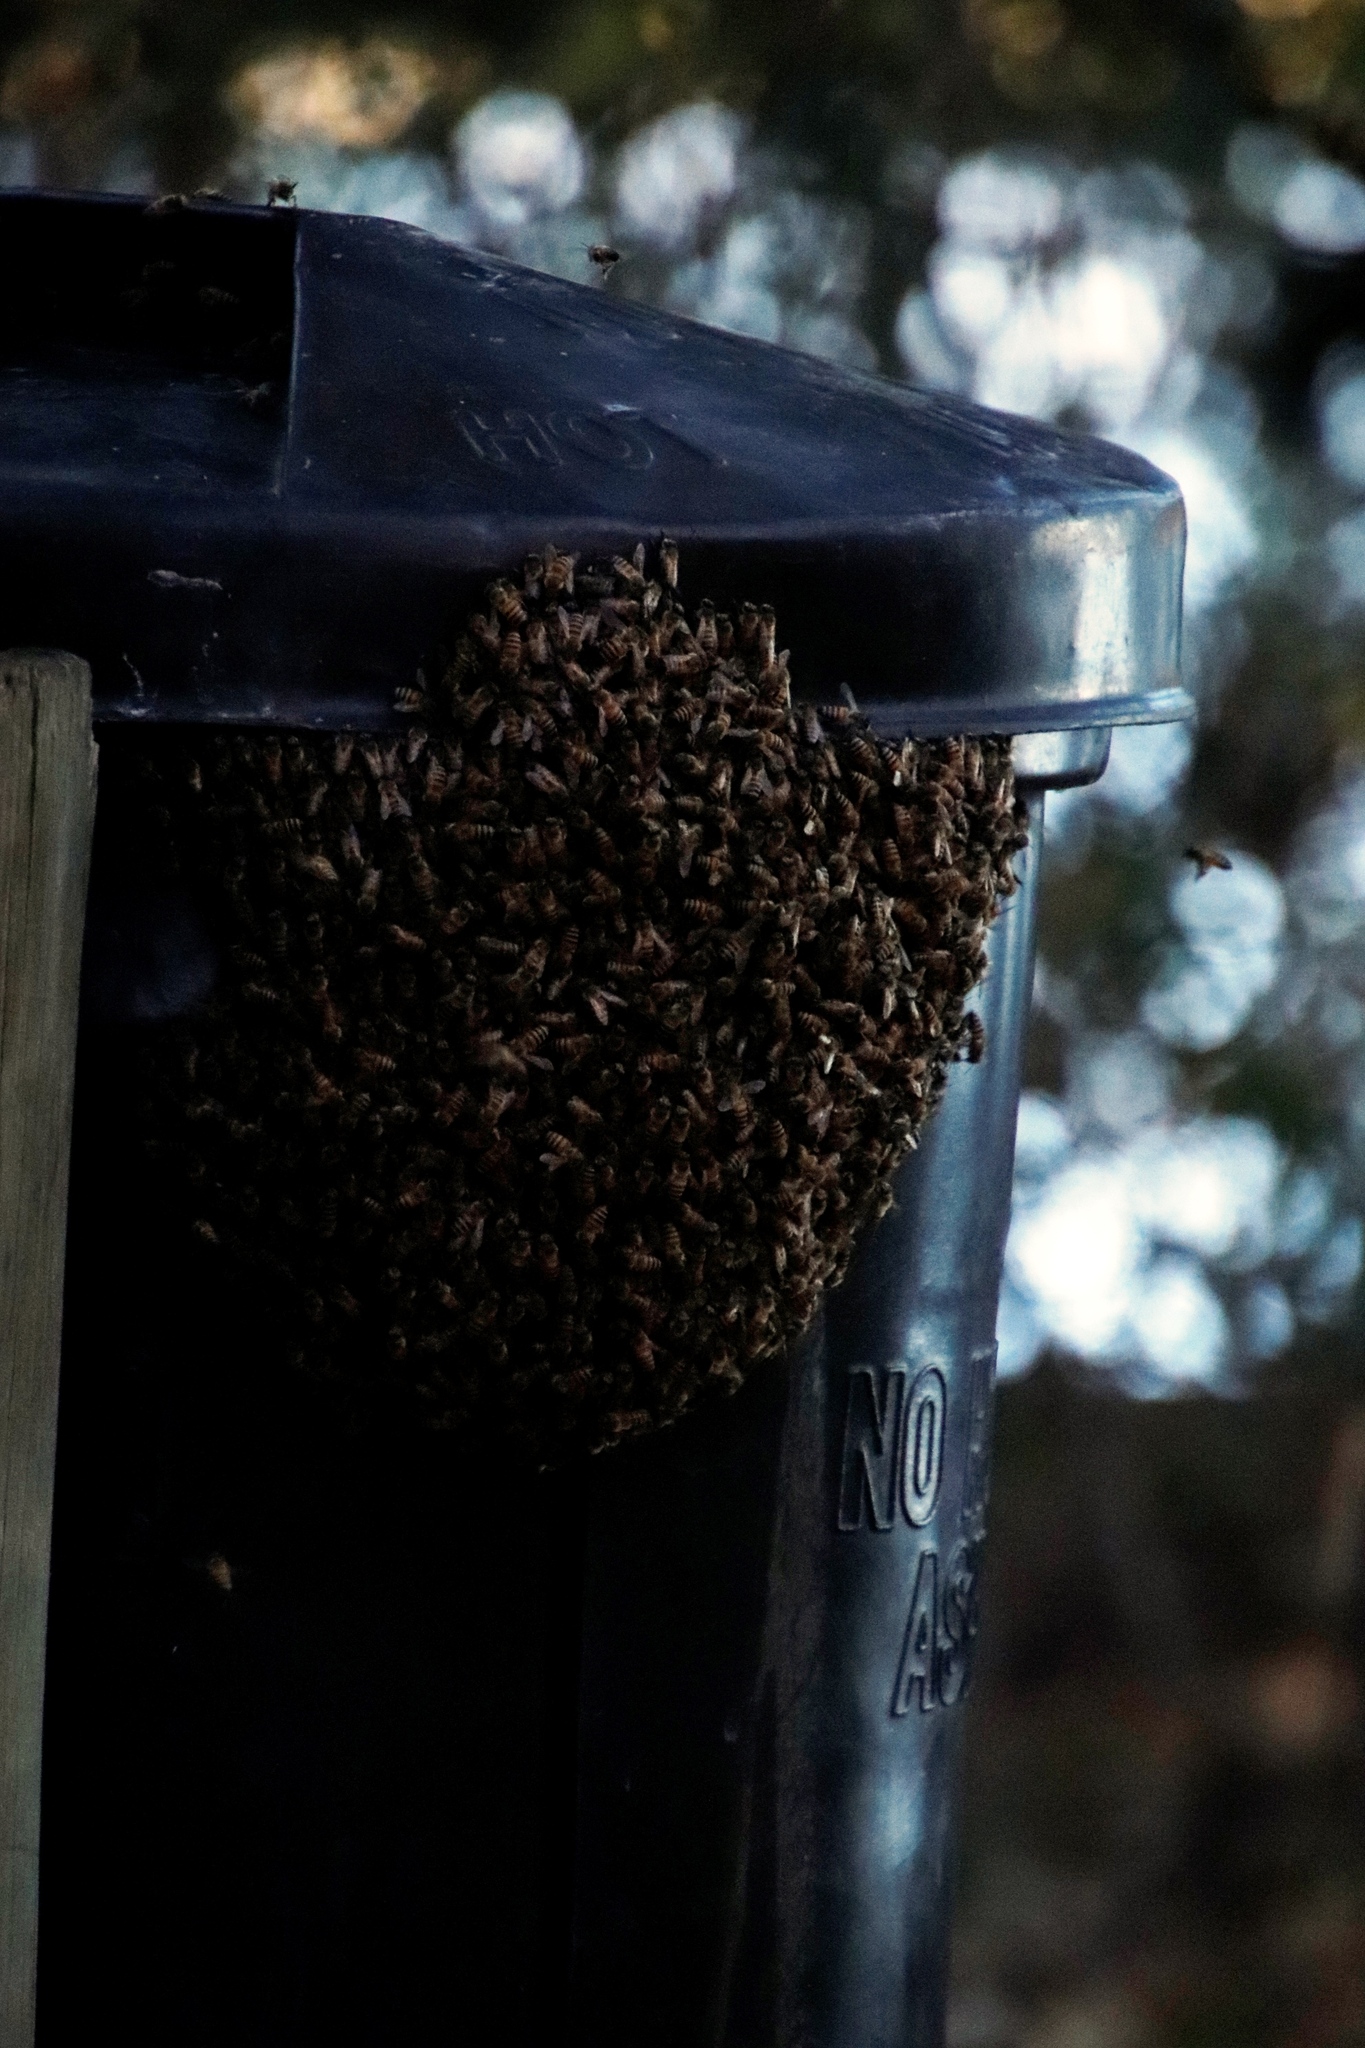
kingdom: Animalia
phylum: Arthropoda
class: Insecta
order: Hymenoptera
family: Apidae
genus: Apis
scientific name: Apis mellifera
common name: Honey bee
